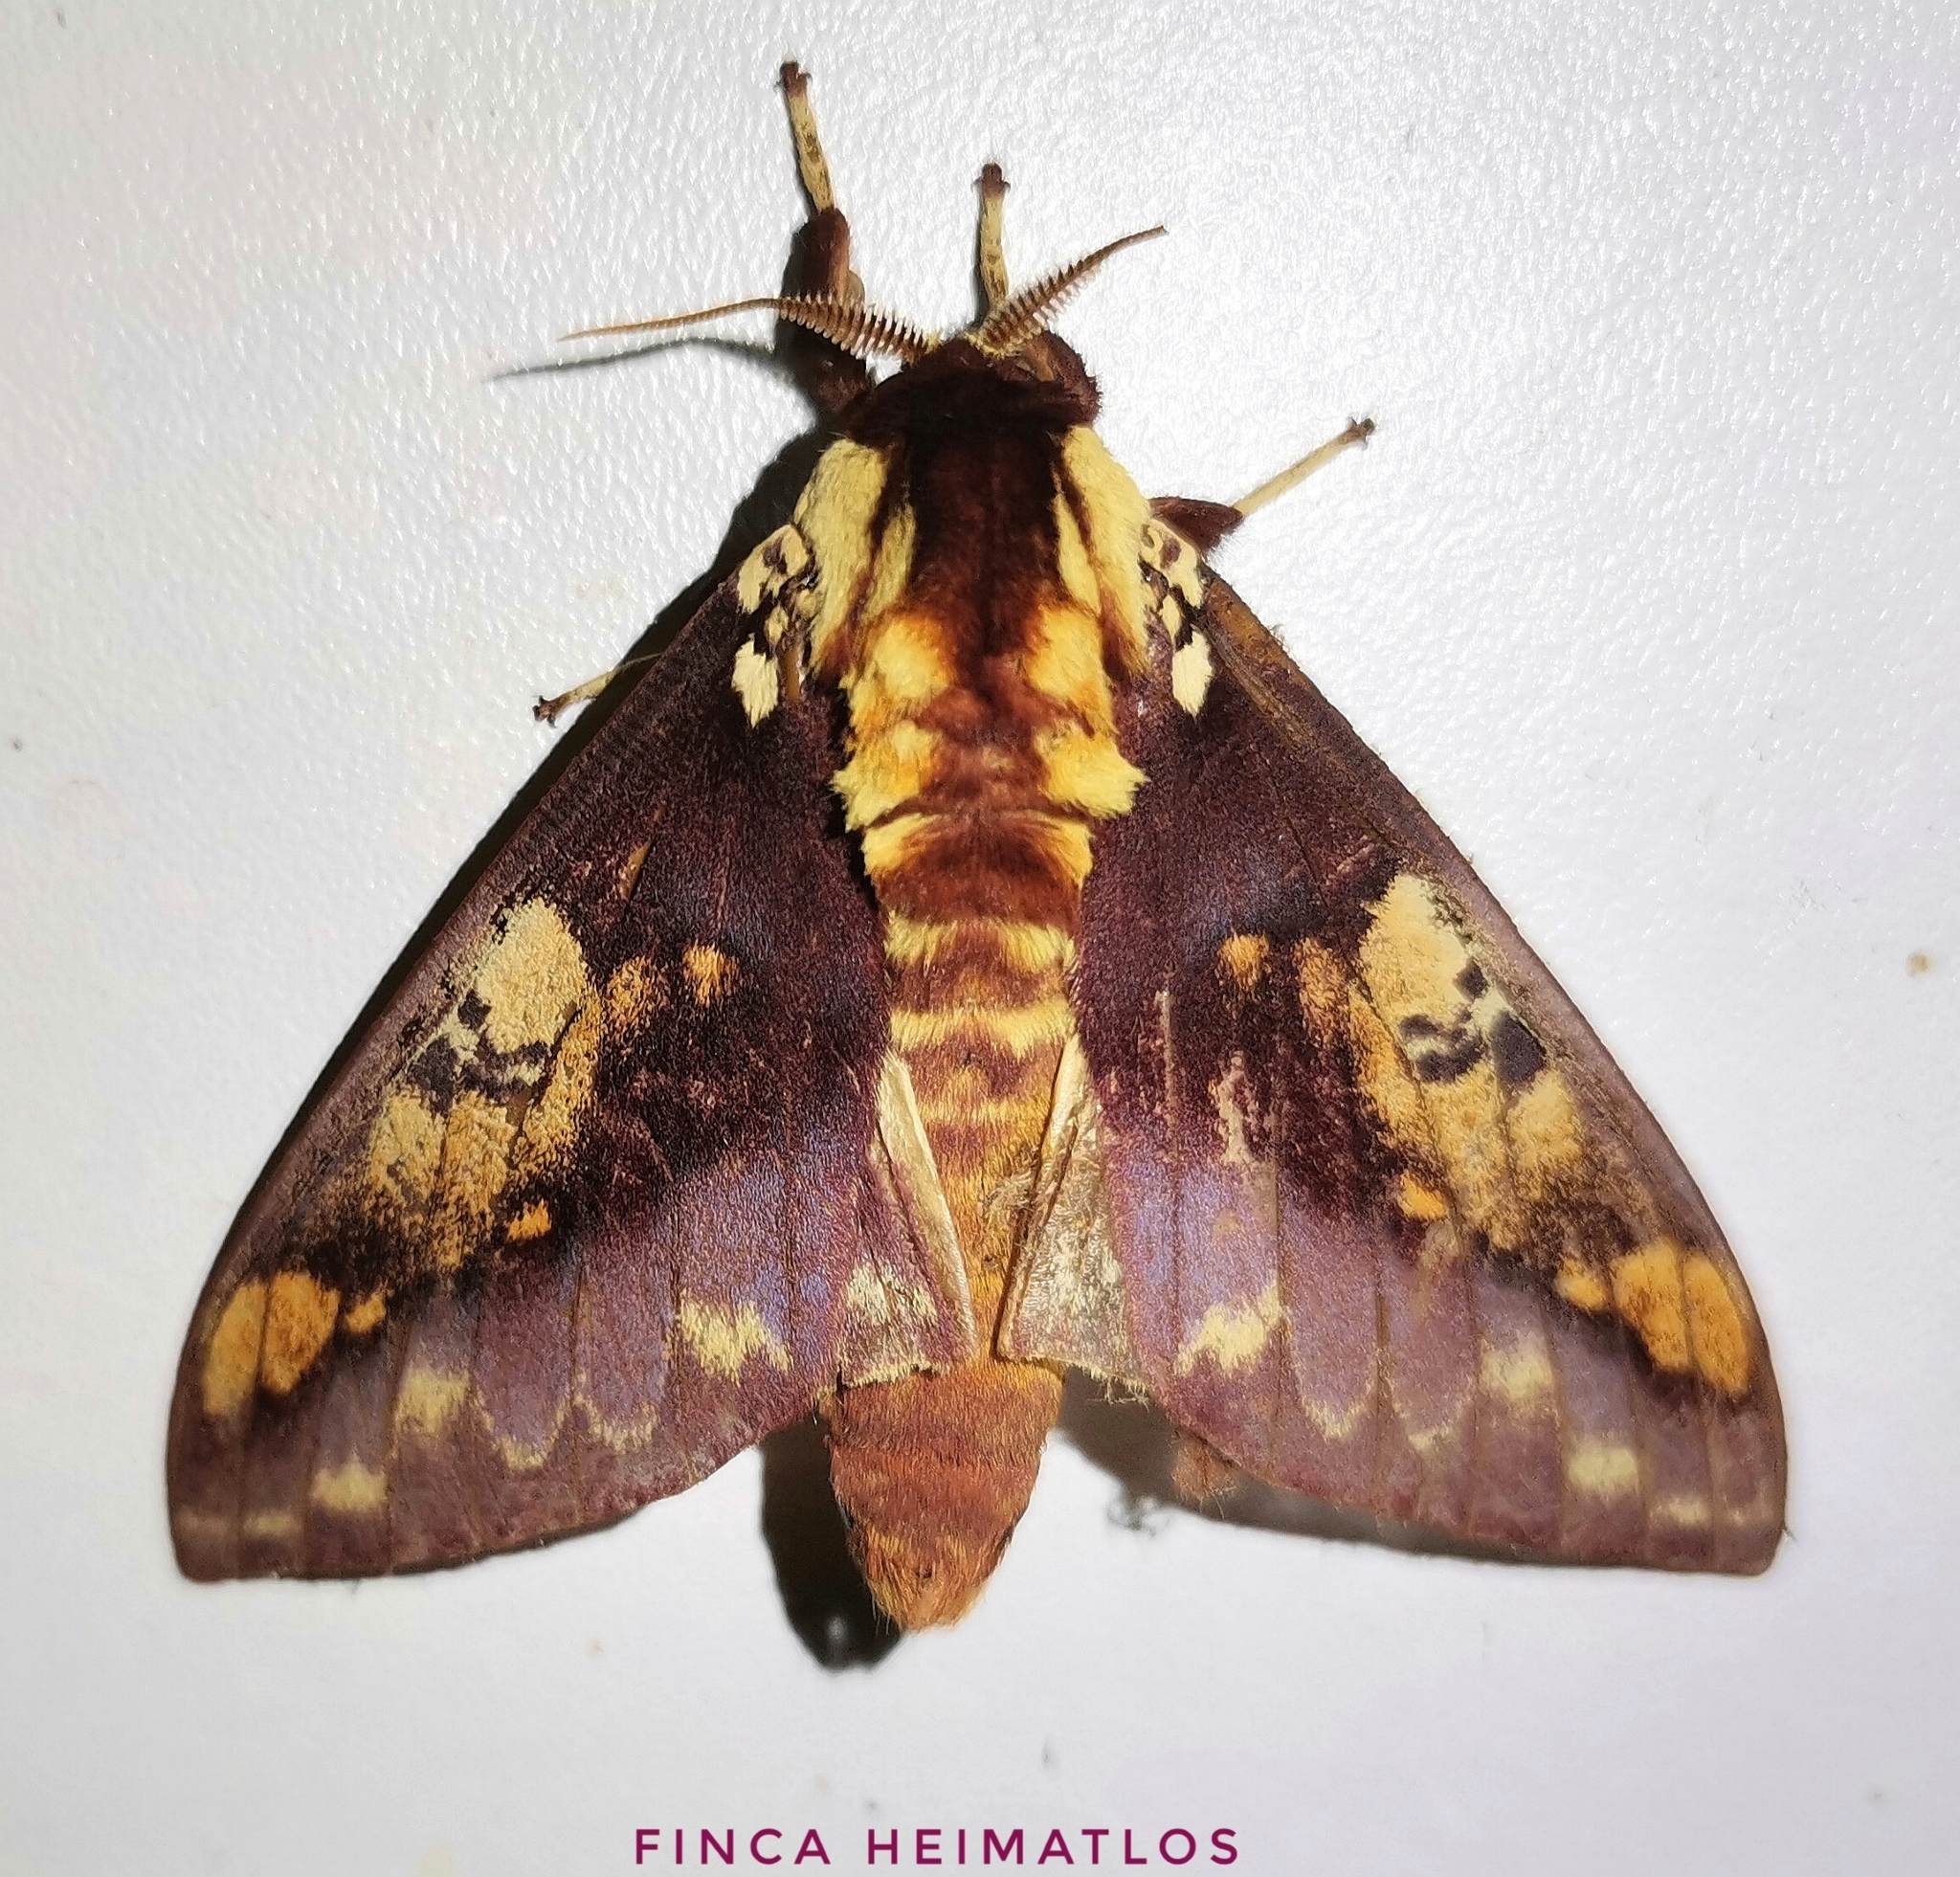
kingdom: Animalia
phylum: Arthropoda
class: Insecta
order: Lepidoptera
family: Saturniidae
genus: Citheronia
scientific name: Citheronia phoronea
